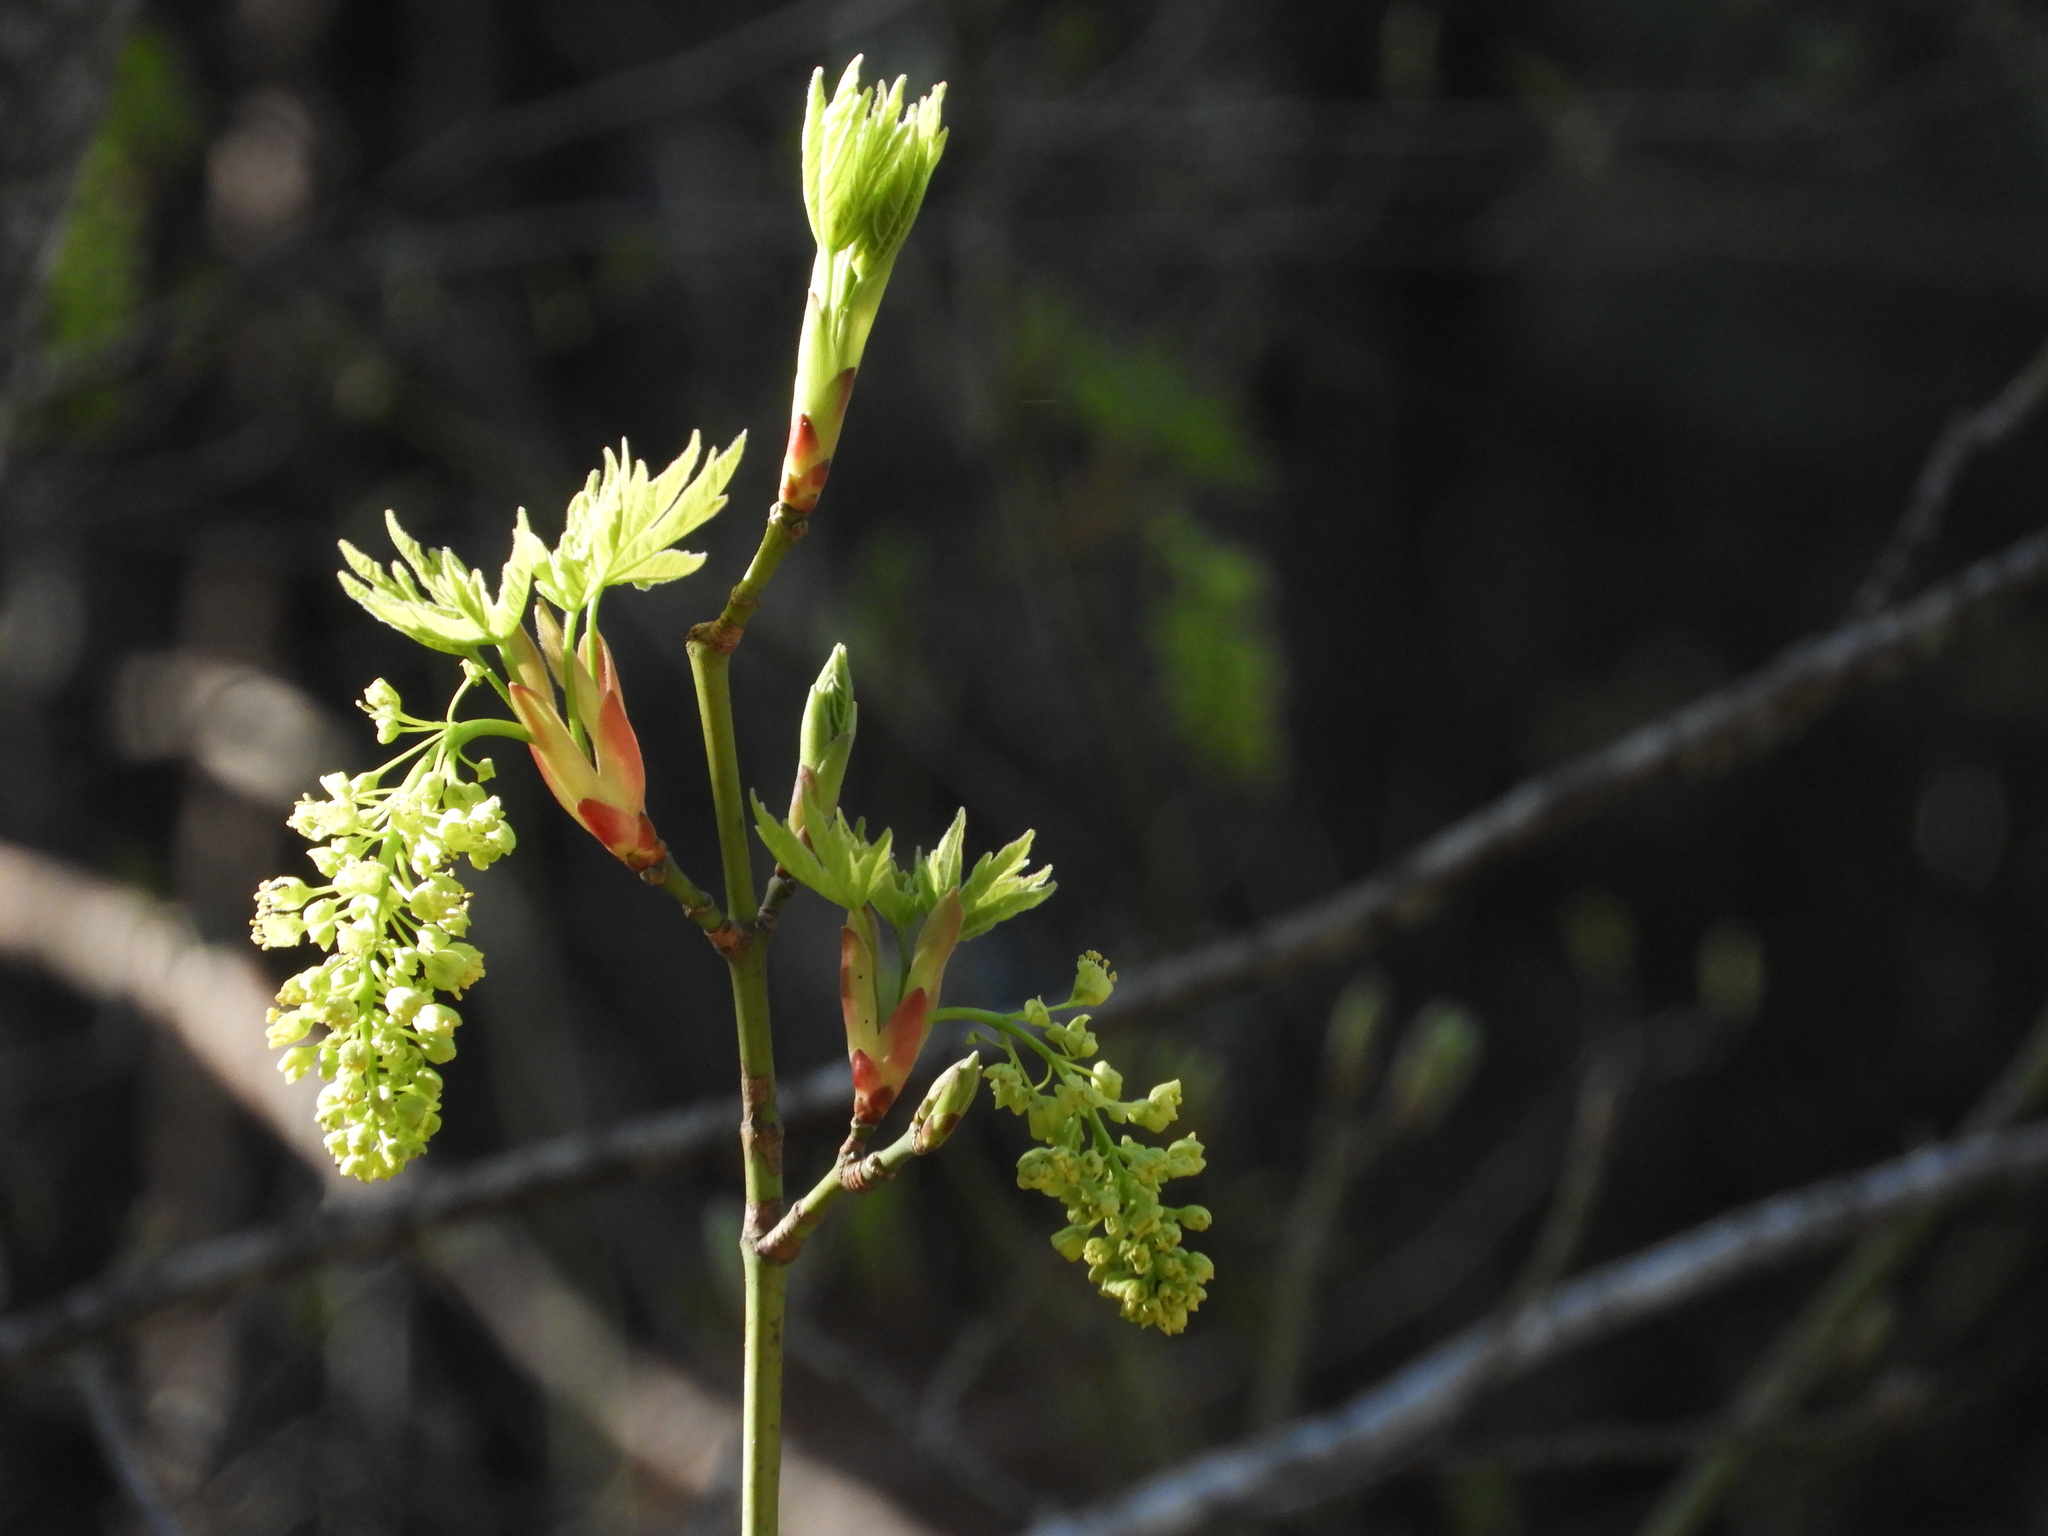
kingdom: Plantae
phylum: Tracheophyta
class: Magnoliopsida
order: Sapindales
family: Sapindaceae
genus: Acer
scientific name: Acer macrophyllum
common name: Oregon maple
